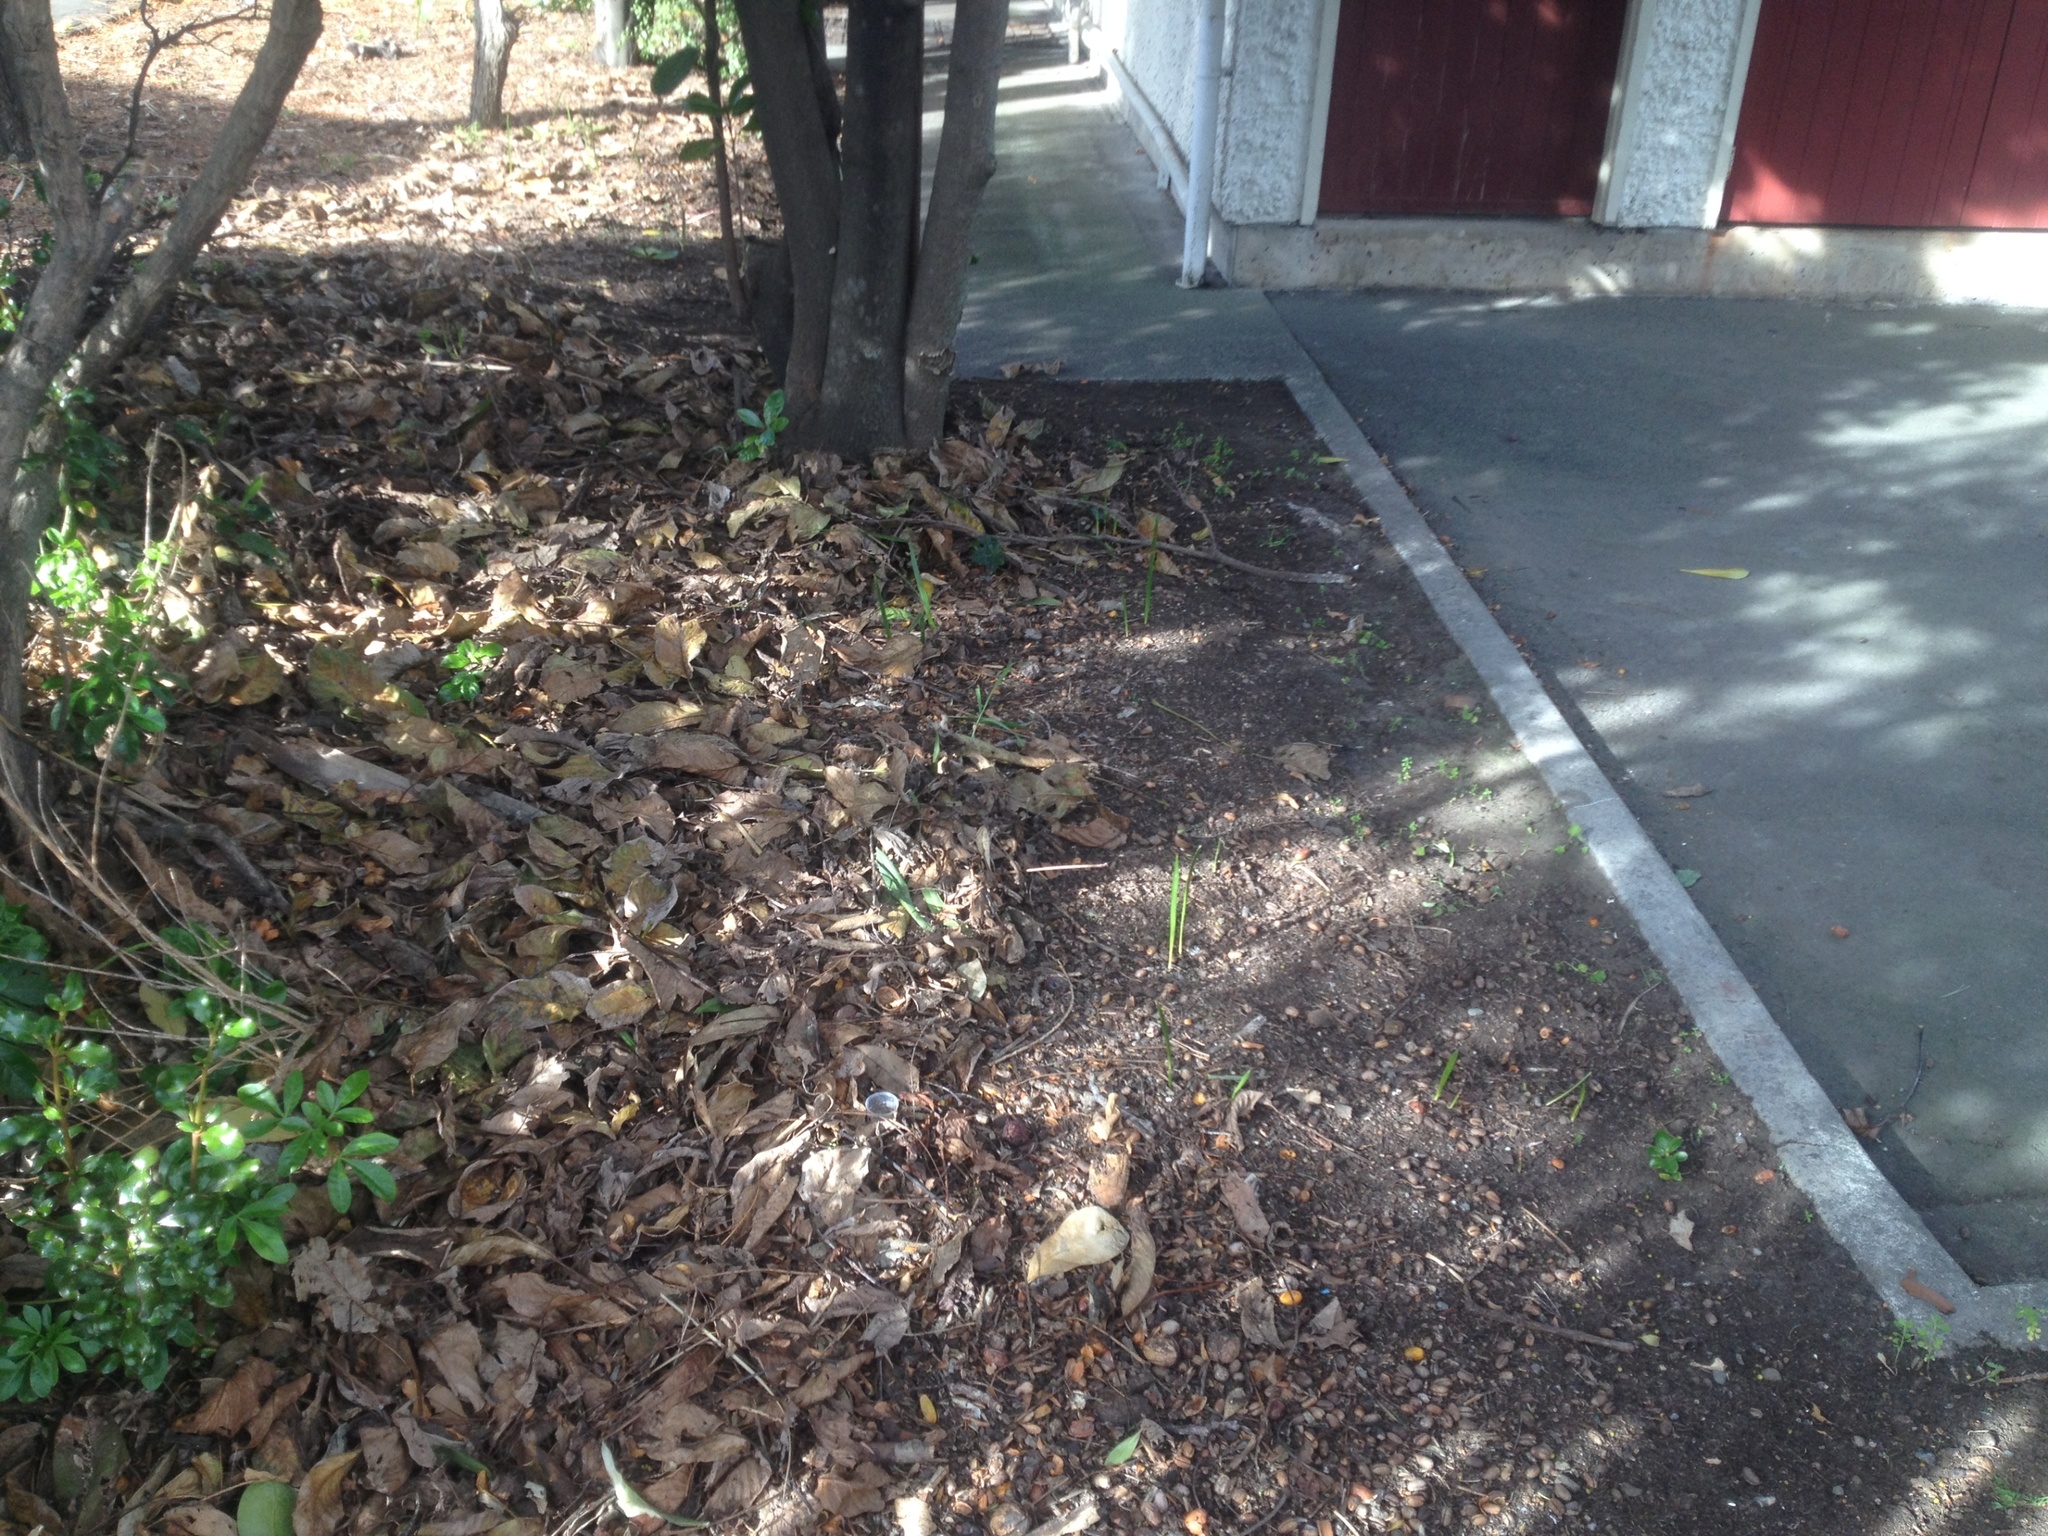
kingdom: Plantae
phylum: Tracheophyta
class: Liliopsida
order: Arecales
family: Arecaceae
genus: Phoenix
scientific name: Phoenix canariensis
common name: Canary island date palm
